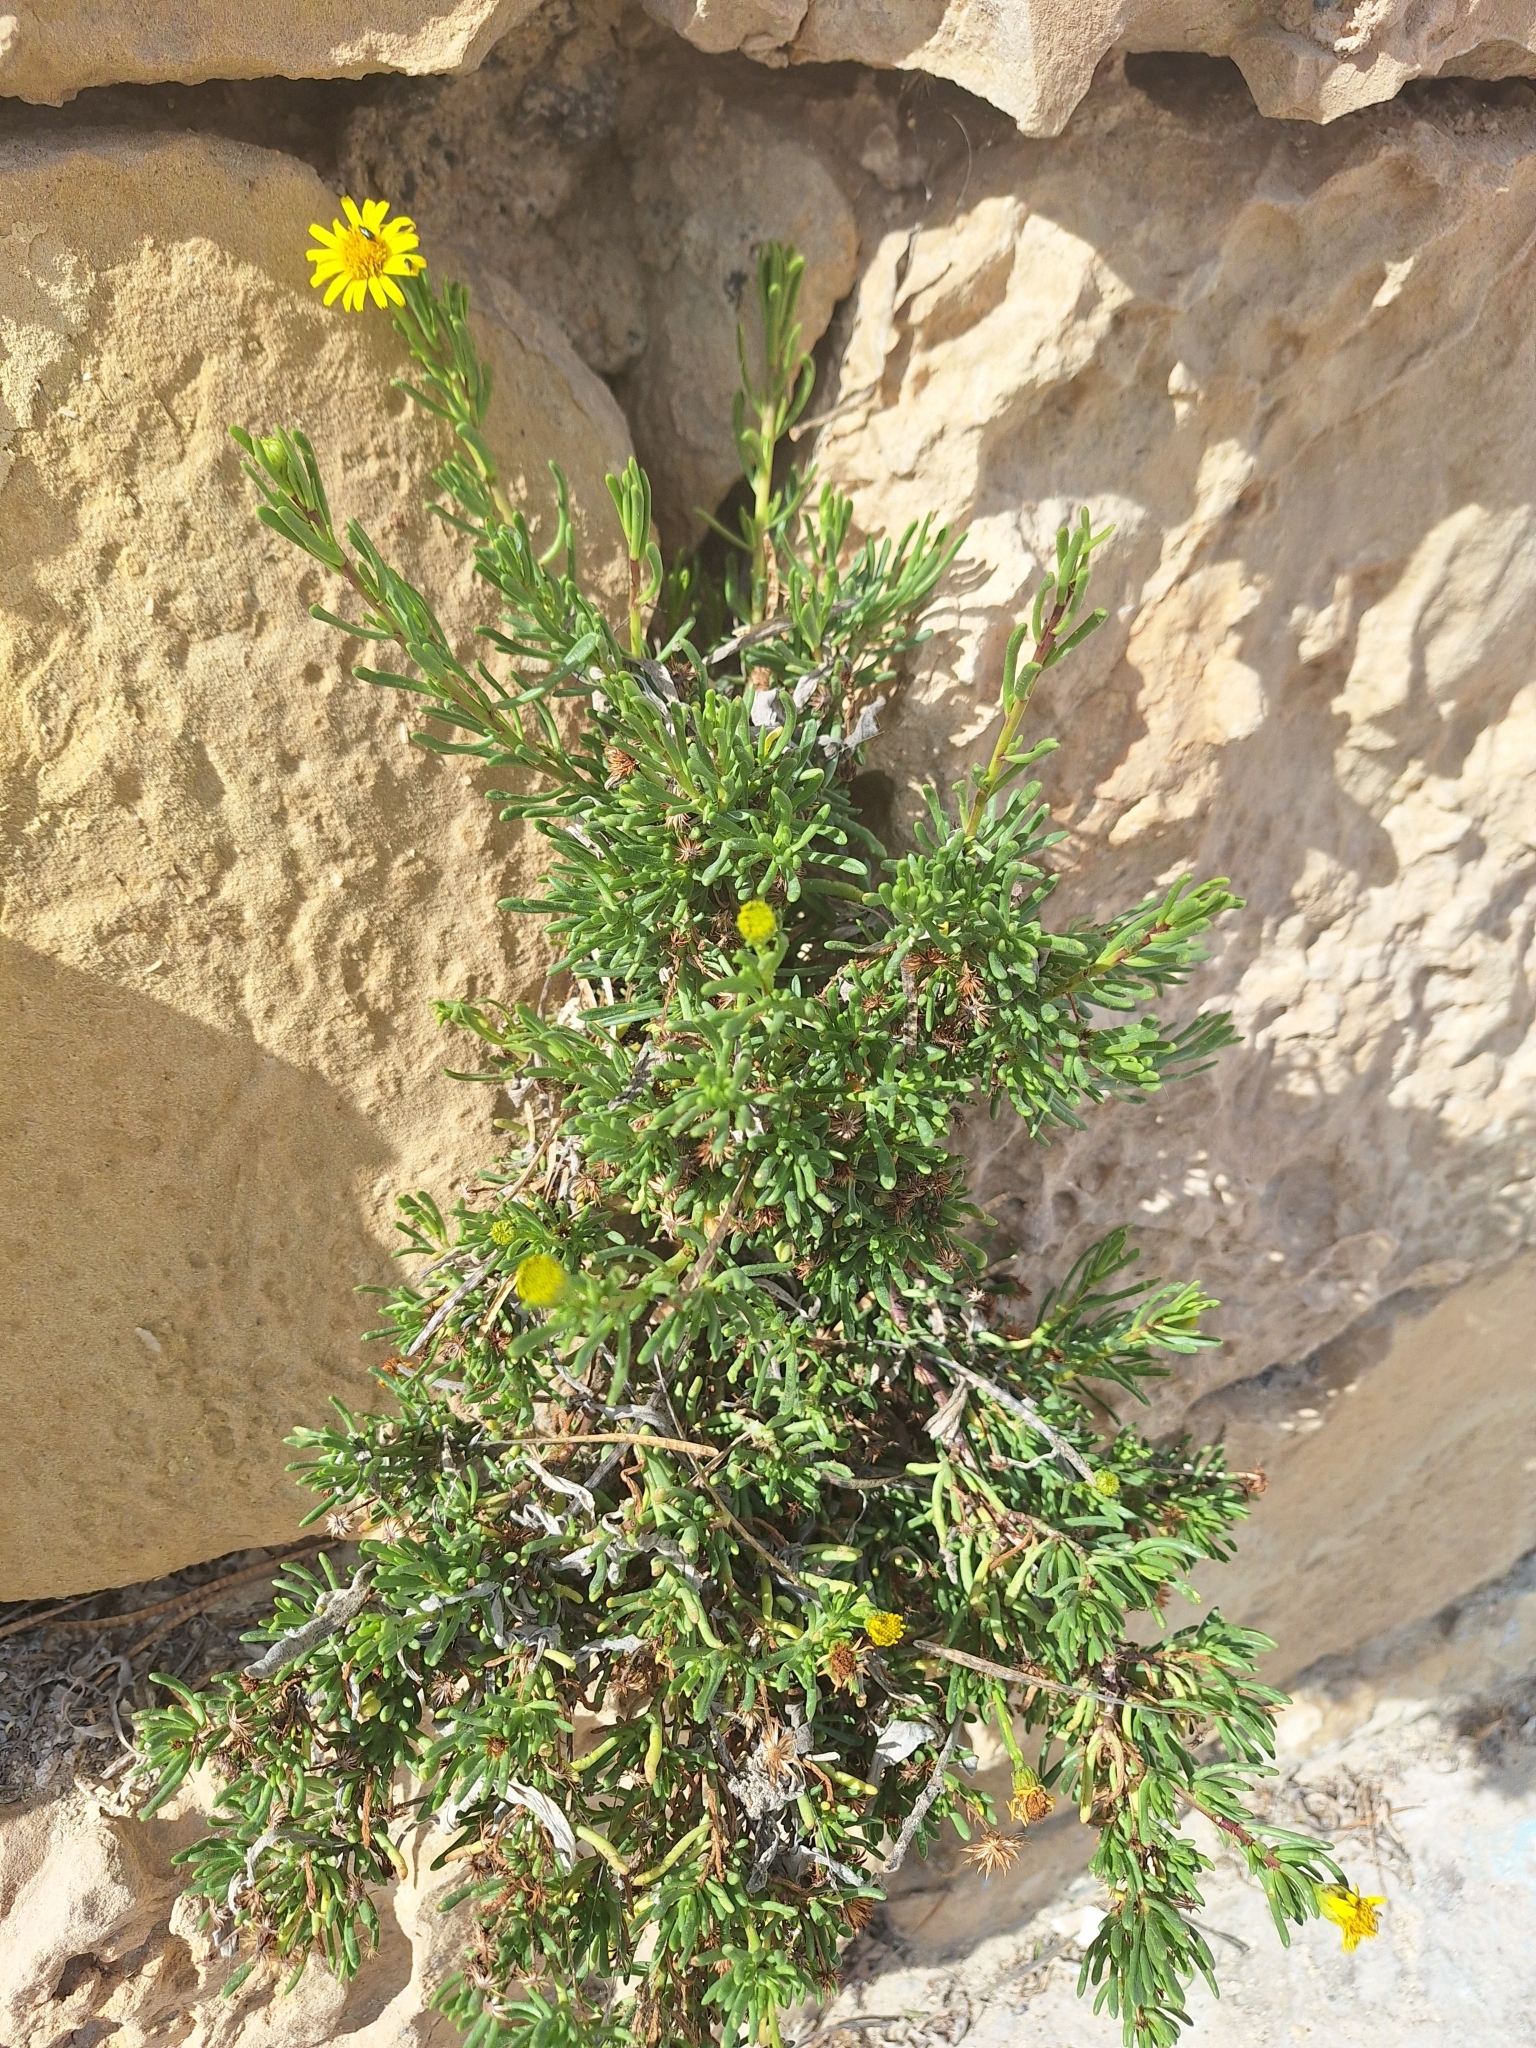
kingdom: Plantae
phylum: Tracheophyta
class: Magnoliopsida
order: Asterales
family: Asteraceae
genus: Limbarda
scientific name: Limbarda crithmoides
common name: Golden samphire
